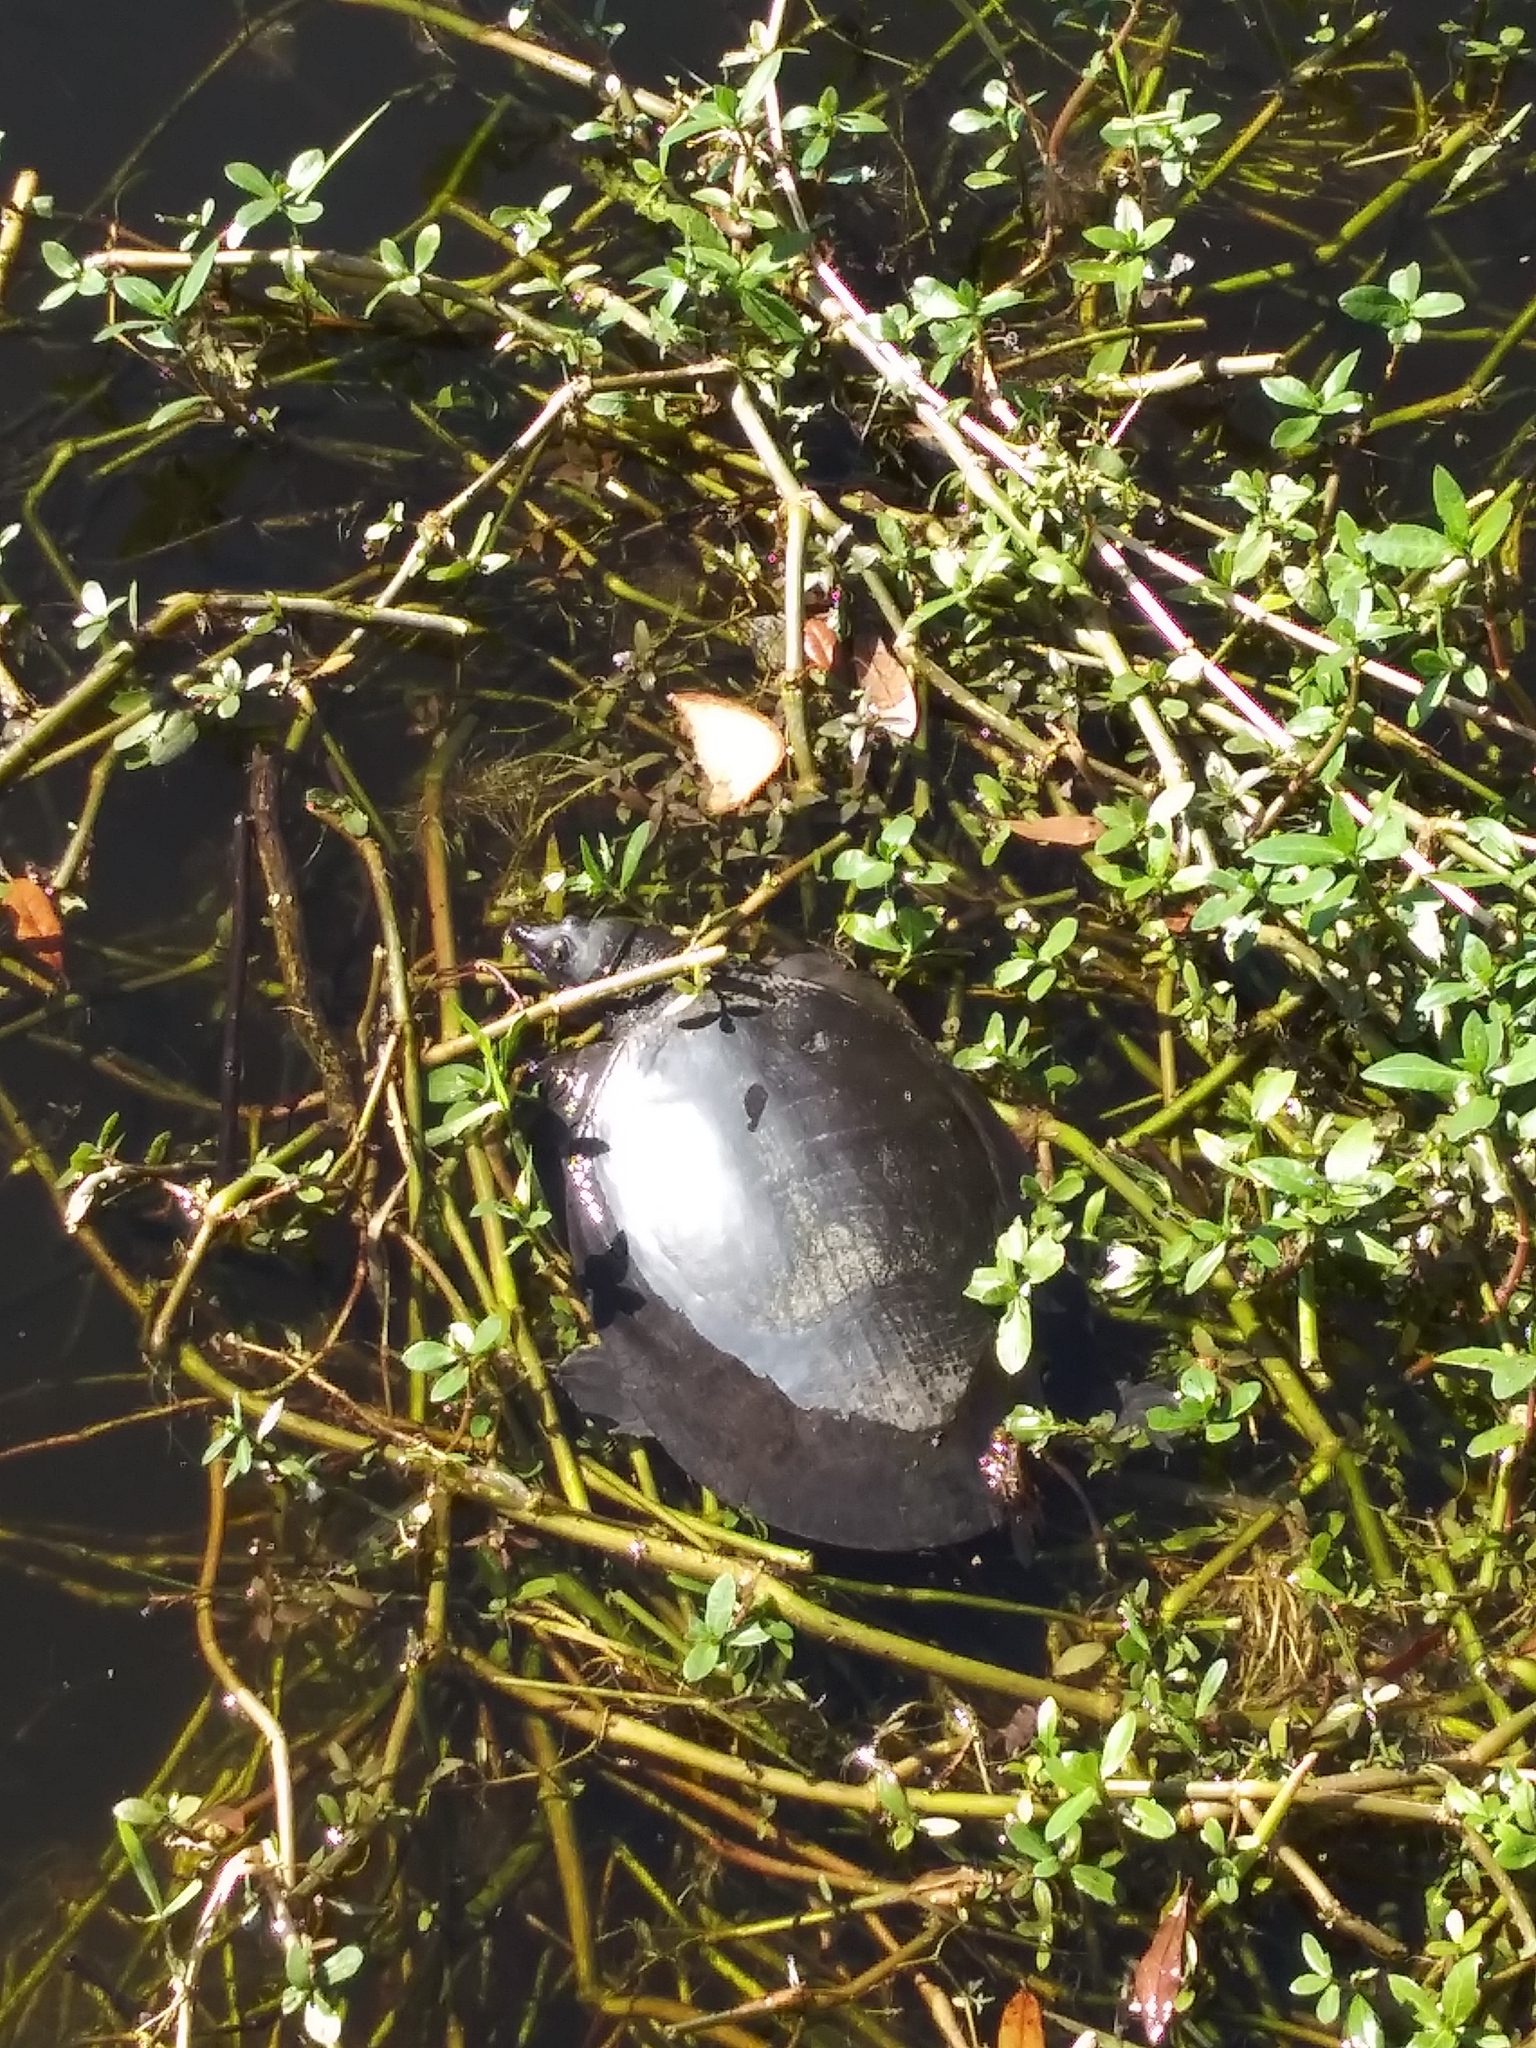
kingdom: Animalia
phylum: Chordata
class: Testudines
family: Trionychidae
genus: Apalone
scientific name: Apalone ferox
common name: Florida softshell turtle
